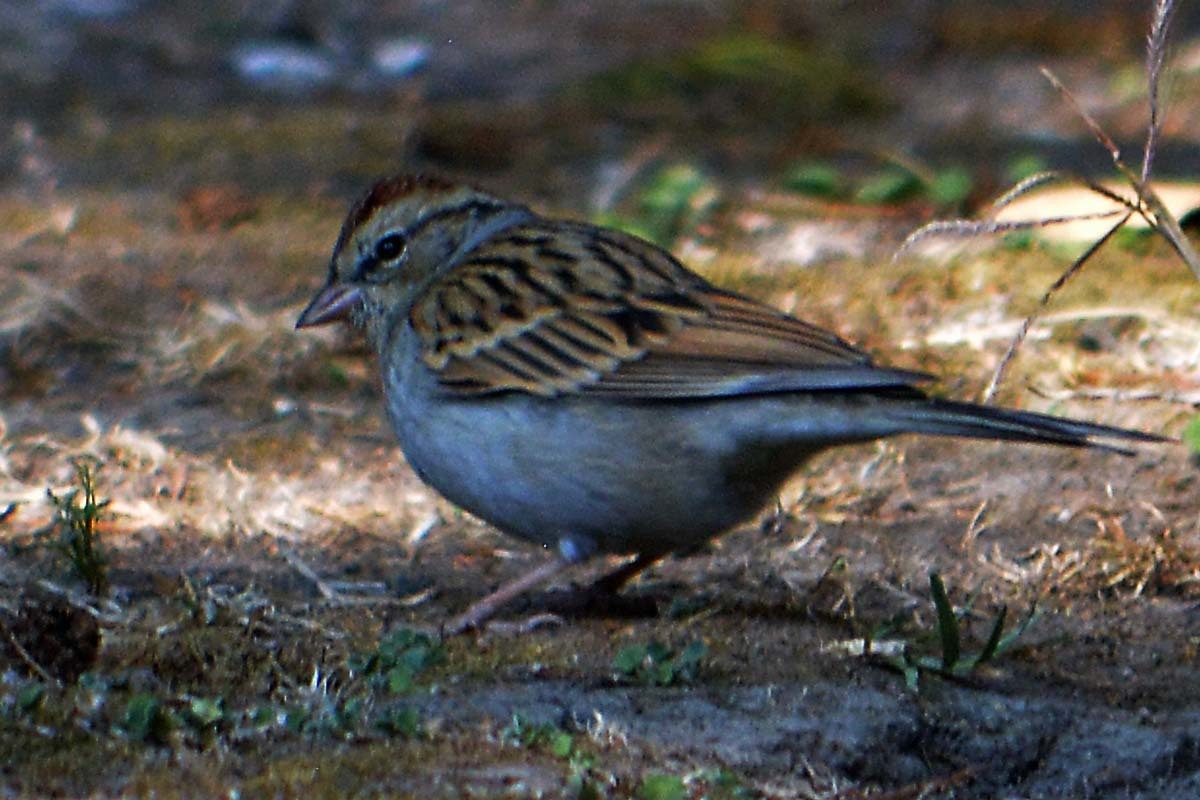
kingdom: Animalia
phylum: Chordata
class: Aves
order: Passeriformes
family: Passerellidae
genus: Spizella
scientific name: Spizella passerina
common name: Chipping sparrow
